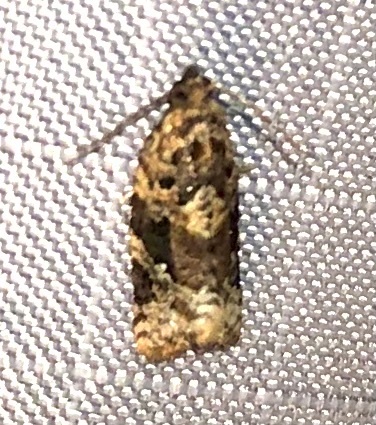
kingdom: Animalia
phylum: Arthropoda
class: Insecta
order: Lepidoptera
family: Tortricidae
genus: Argyrotaenia
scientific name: Argyrotaenia velutinana
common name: Red-banded leafroller moth
